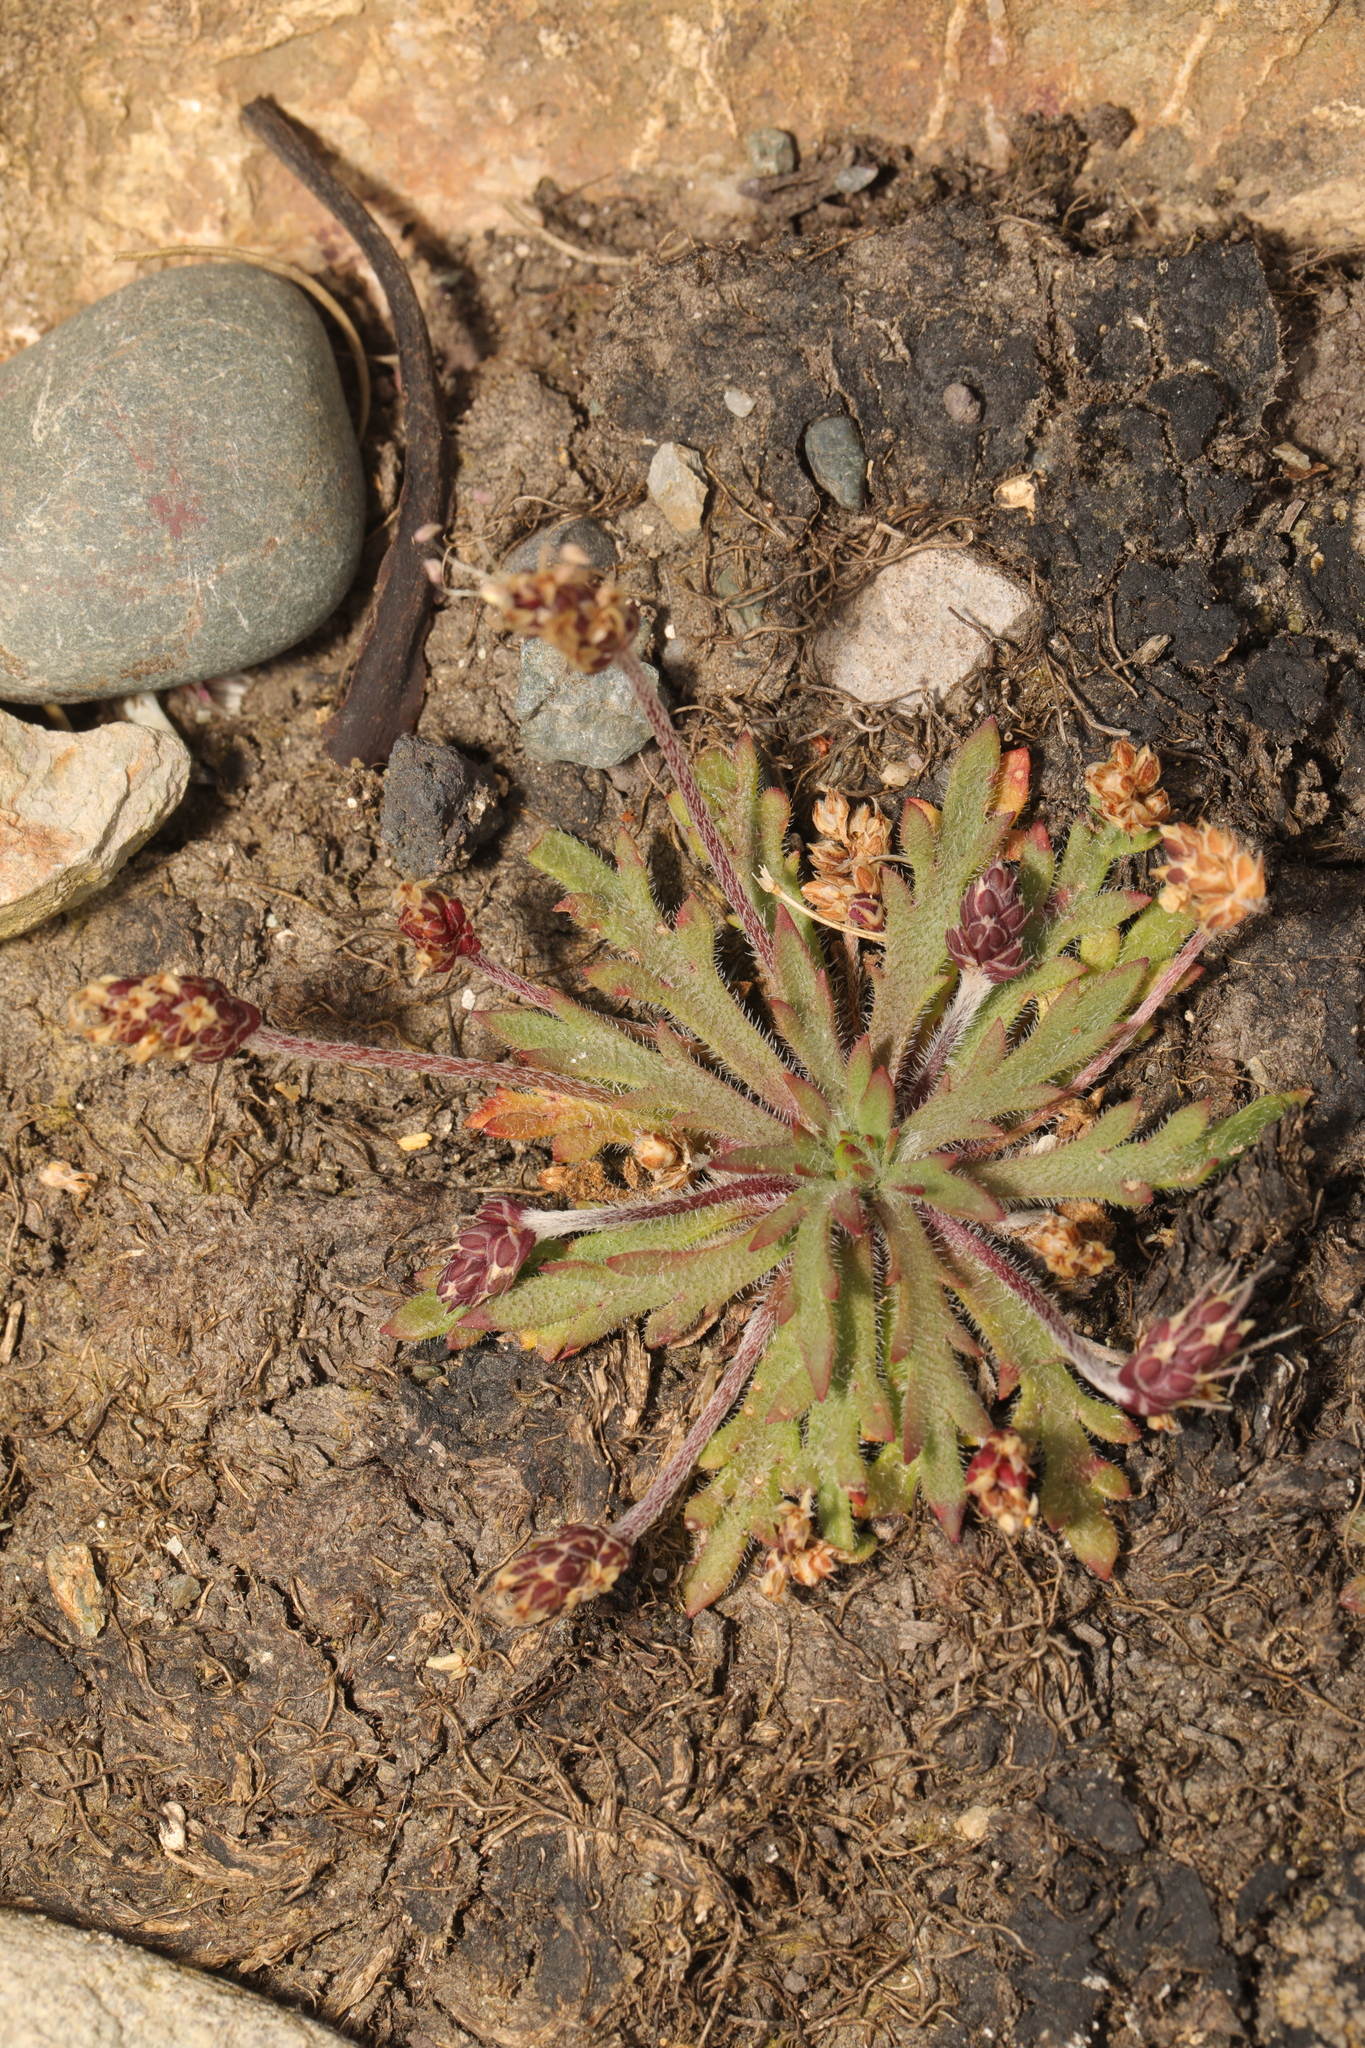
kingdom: Plantae
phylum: Tracheophyta
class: Magnoliopsida
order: Lamiales
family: Plantaginaceae
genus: Plantago
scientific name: Plantago coronopus
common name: Buck's-horn plantain
